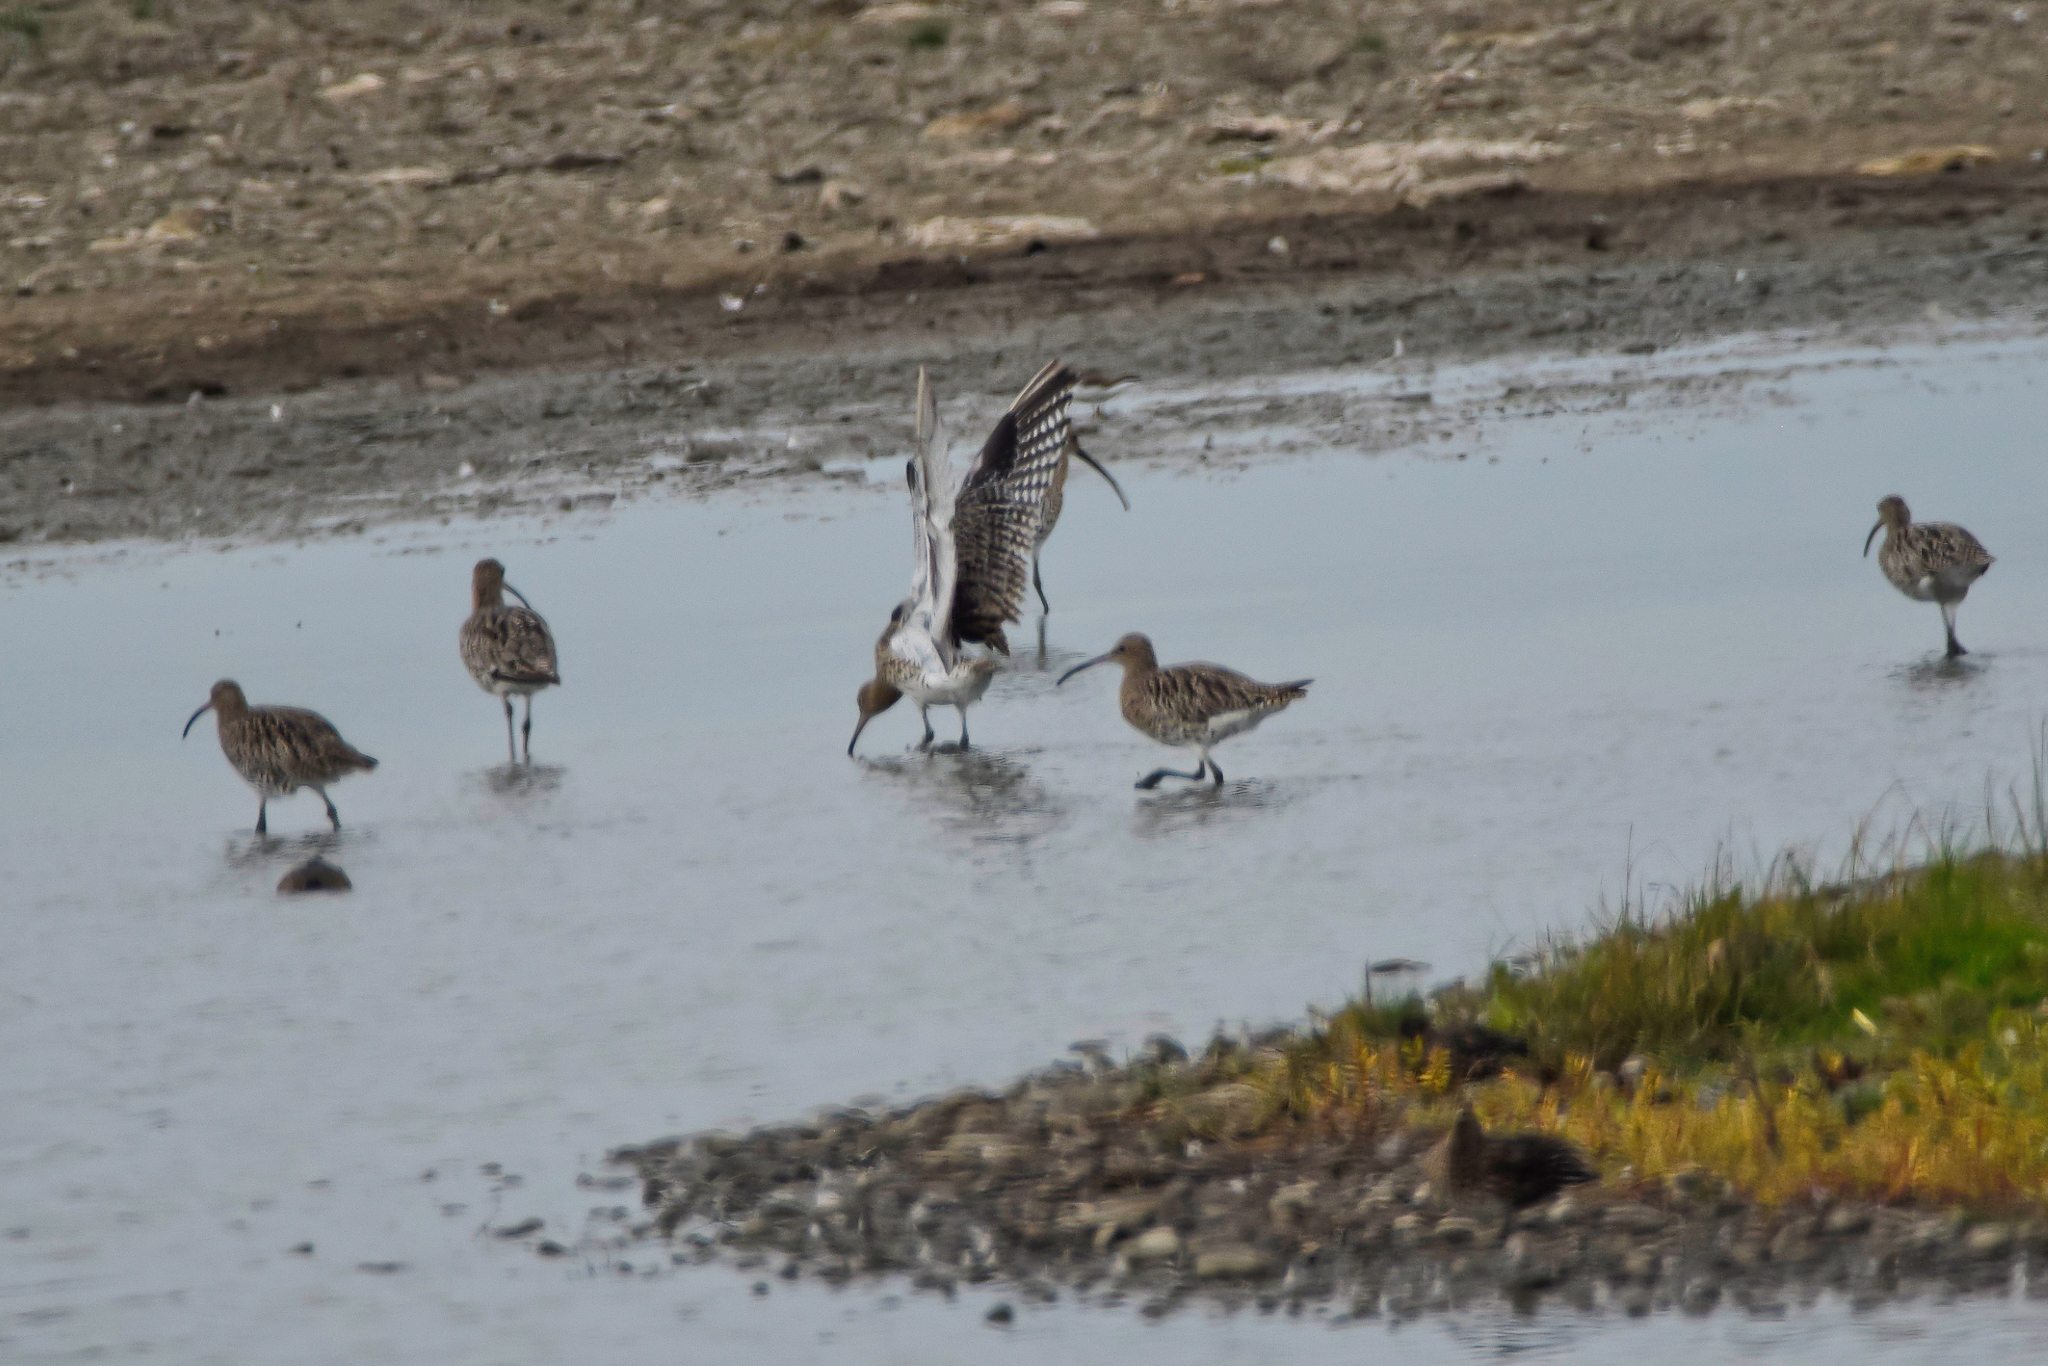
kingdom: Animalia
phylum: Chordata
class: Aves
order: Charadriiformes
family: Scolopacidae
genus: Numenius
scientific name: Numenius arquata
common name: Eurasian curlew
